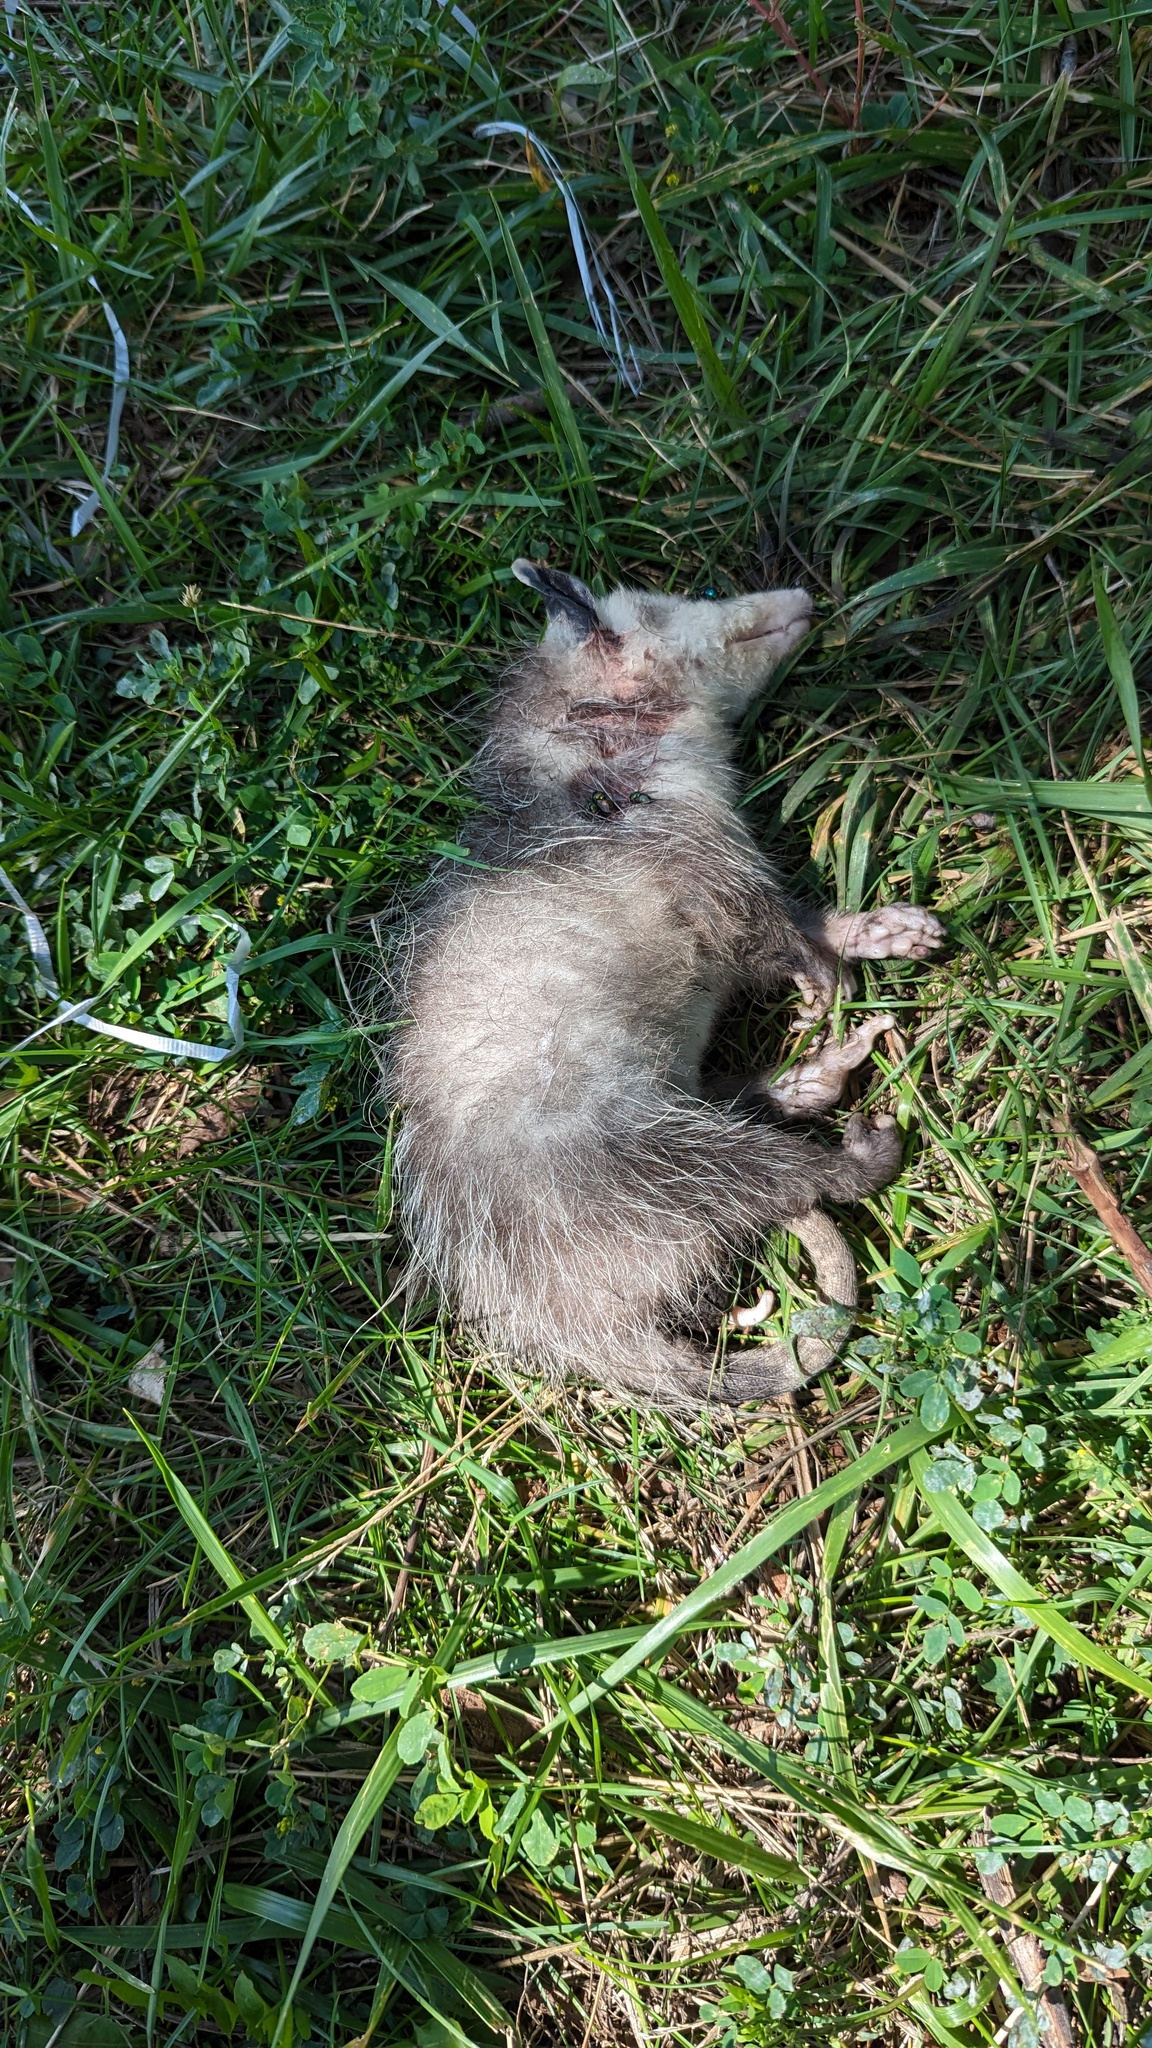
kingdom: Animalia
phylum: Chordata
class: Mammalia
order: Didelphimorphia
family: Didelphidae
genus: Didelphis
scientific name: Didelphis virginiana
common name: Virginia opossum
